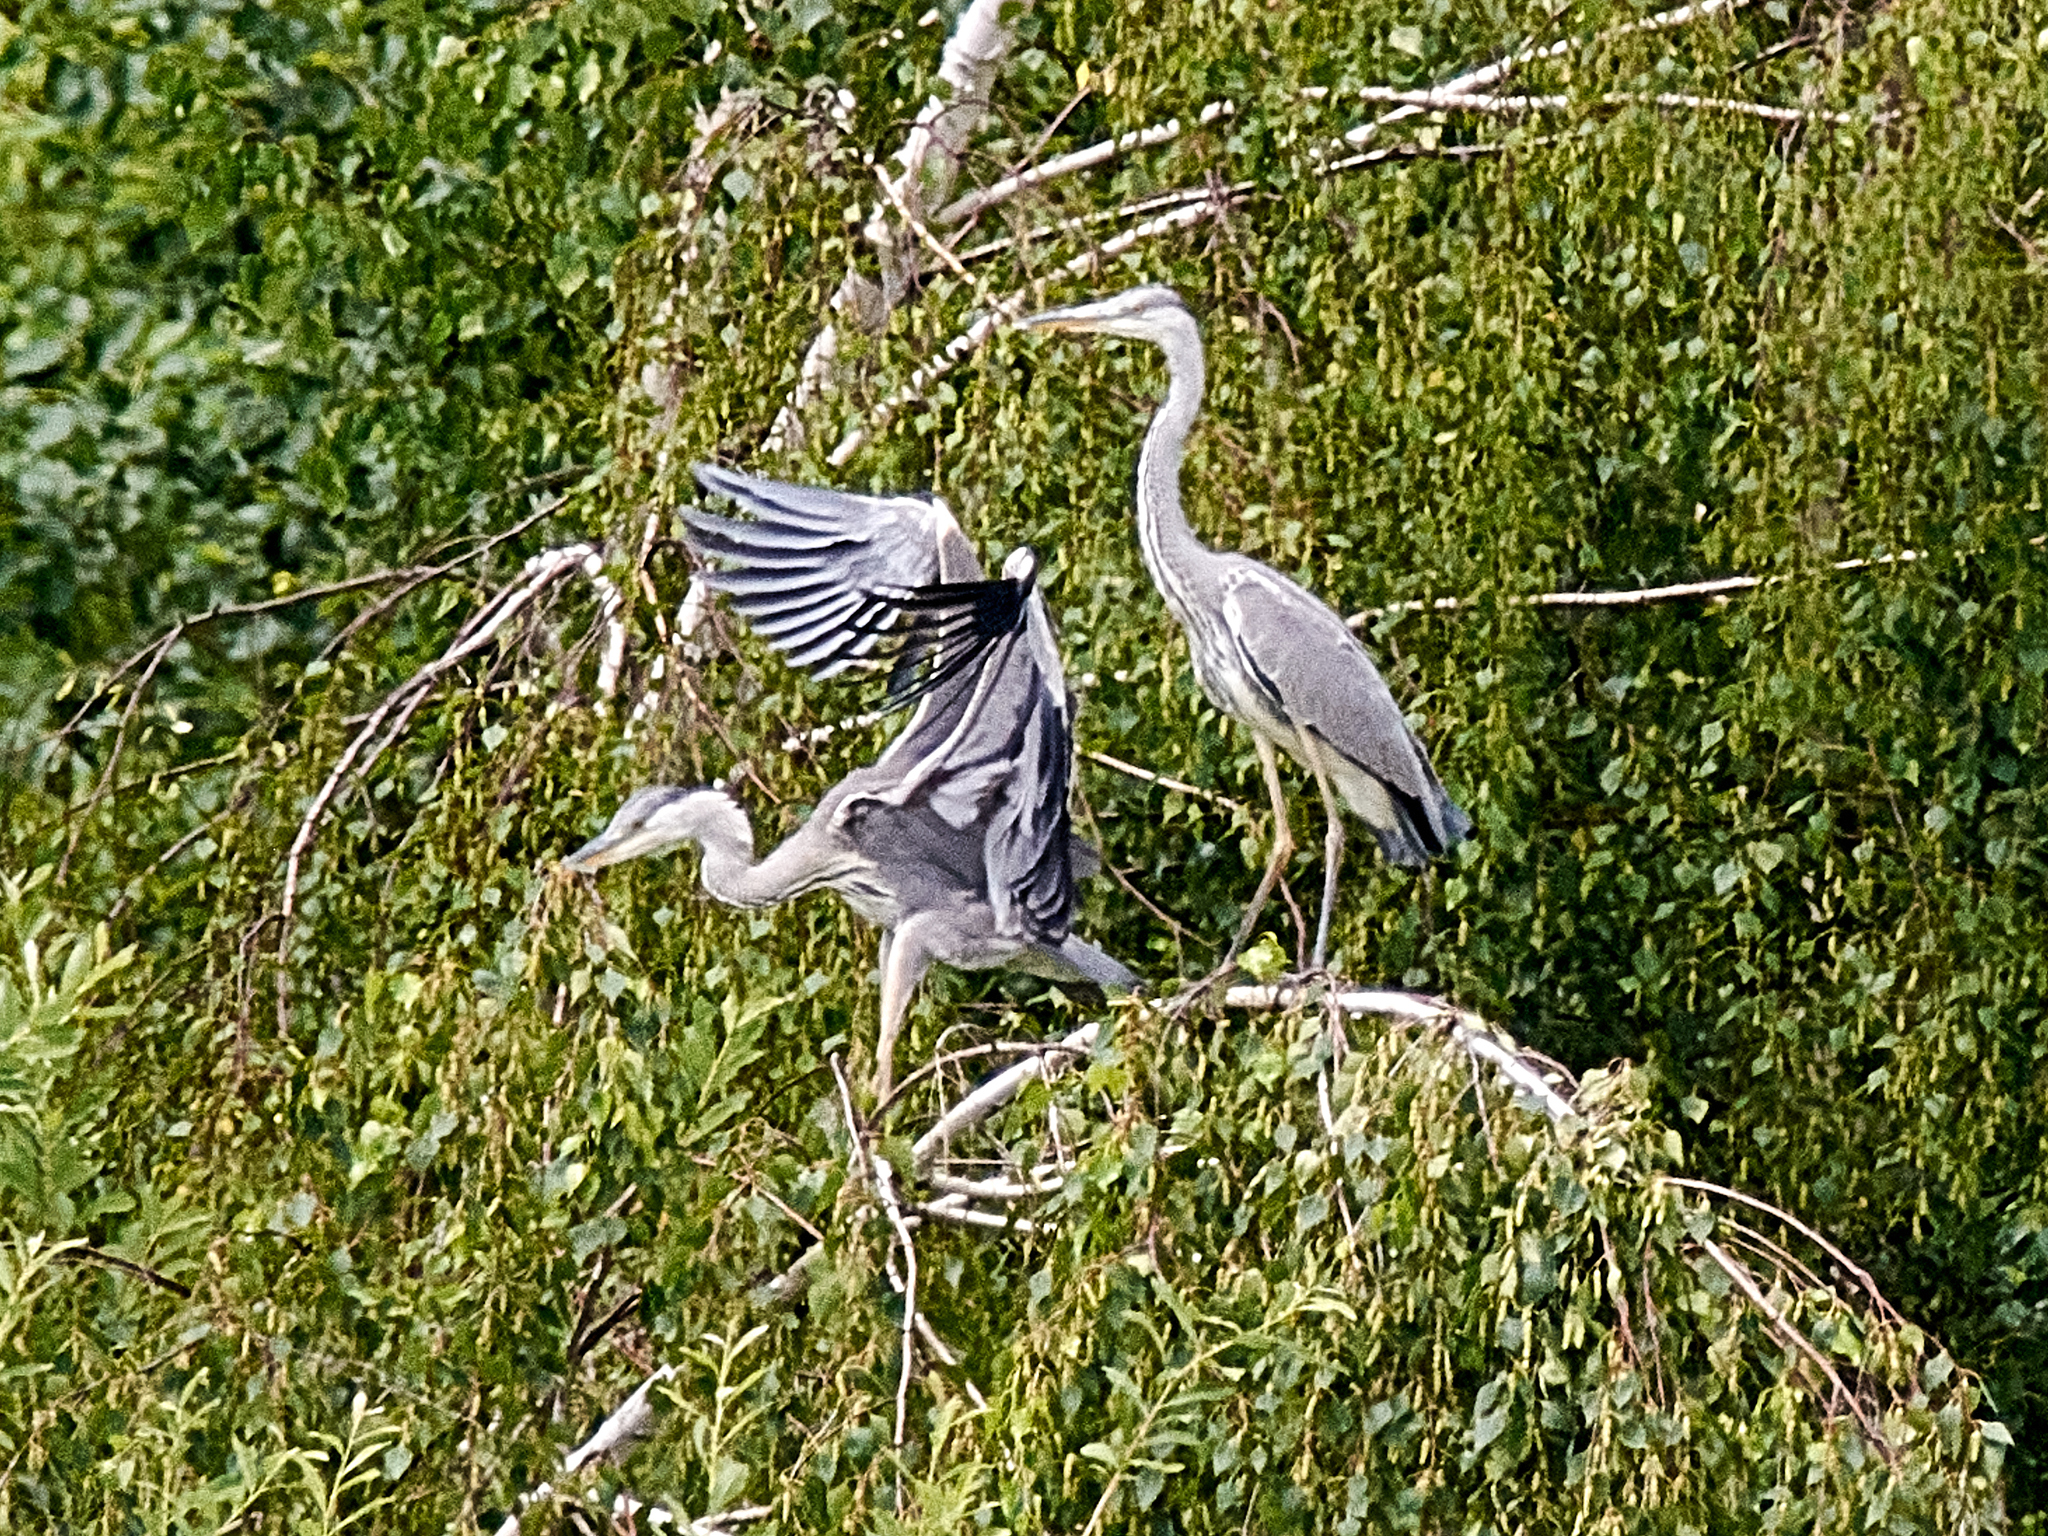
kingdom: Animalia
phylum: Chordata
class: Aves
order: Pelecaniformes
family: Ardeidae
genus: Ardea
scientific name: Ardea cinerea
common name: Grey heron
